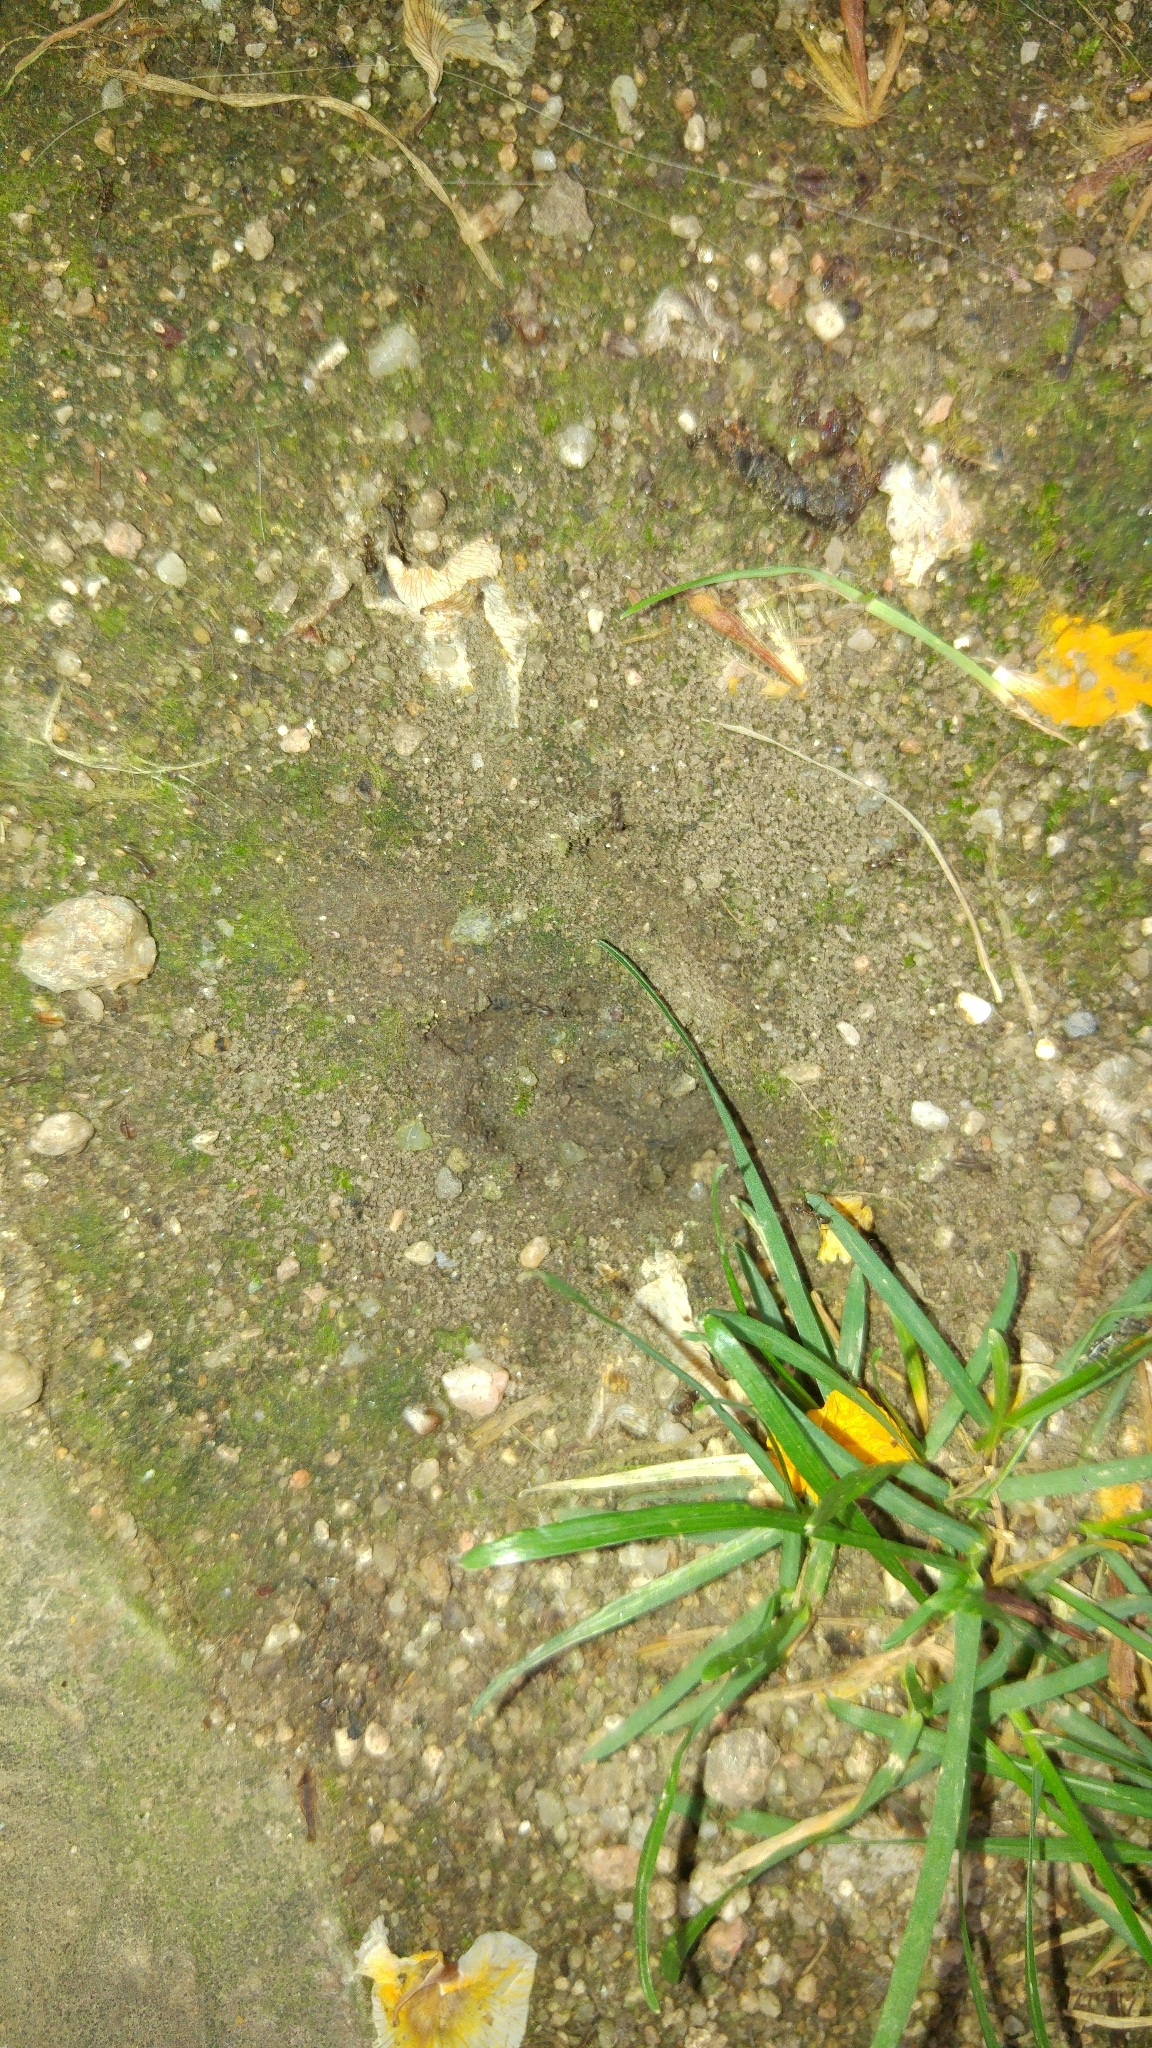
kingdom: Animalia
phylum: Arthropoda
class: Insecta
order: Hymenoptera
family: Formicidae
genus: Linepithema
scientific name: Linepithema humile
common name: Argentine ant
